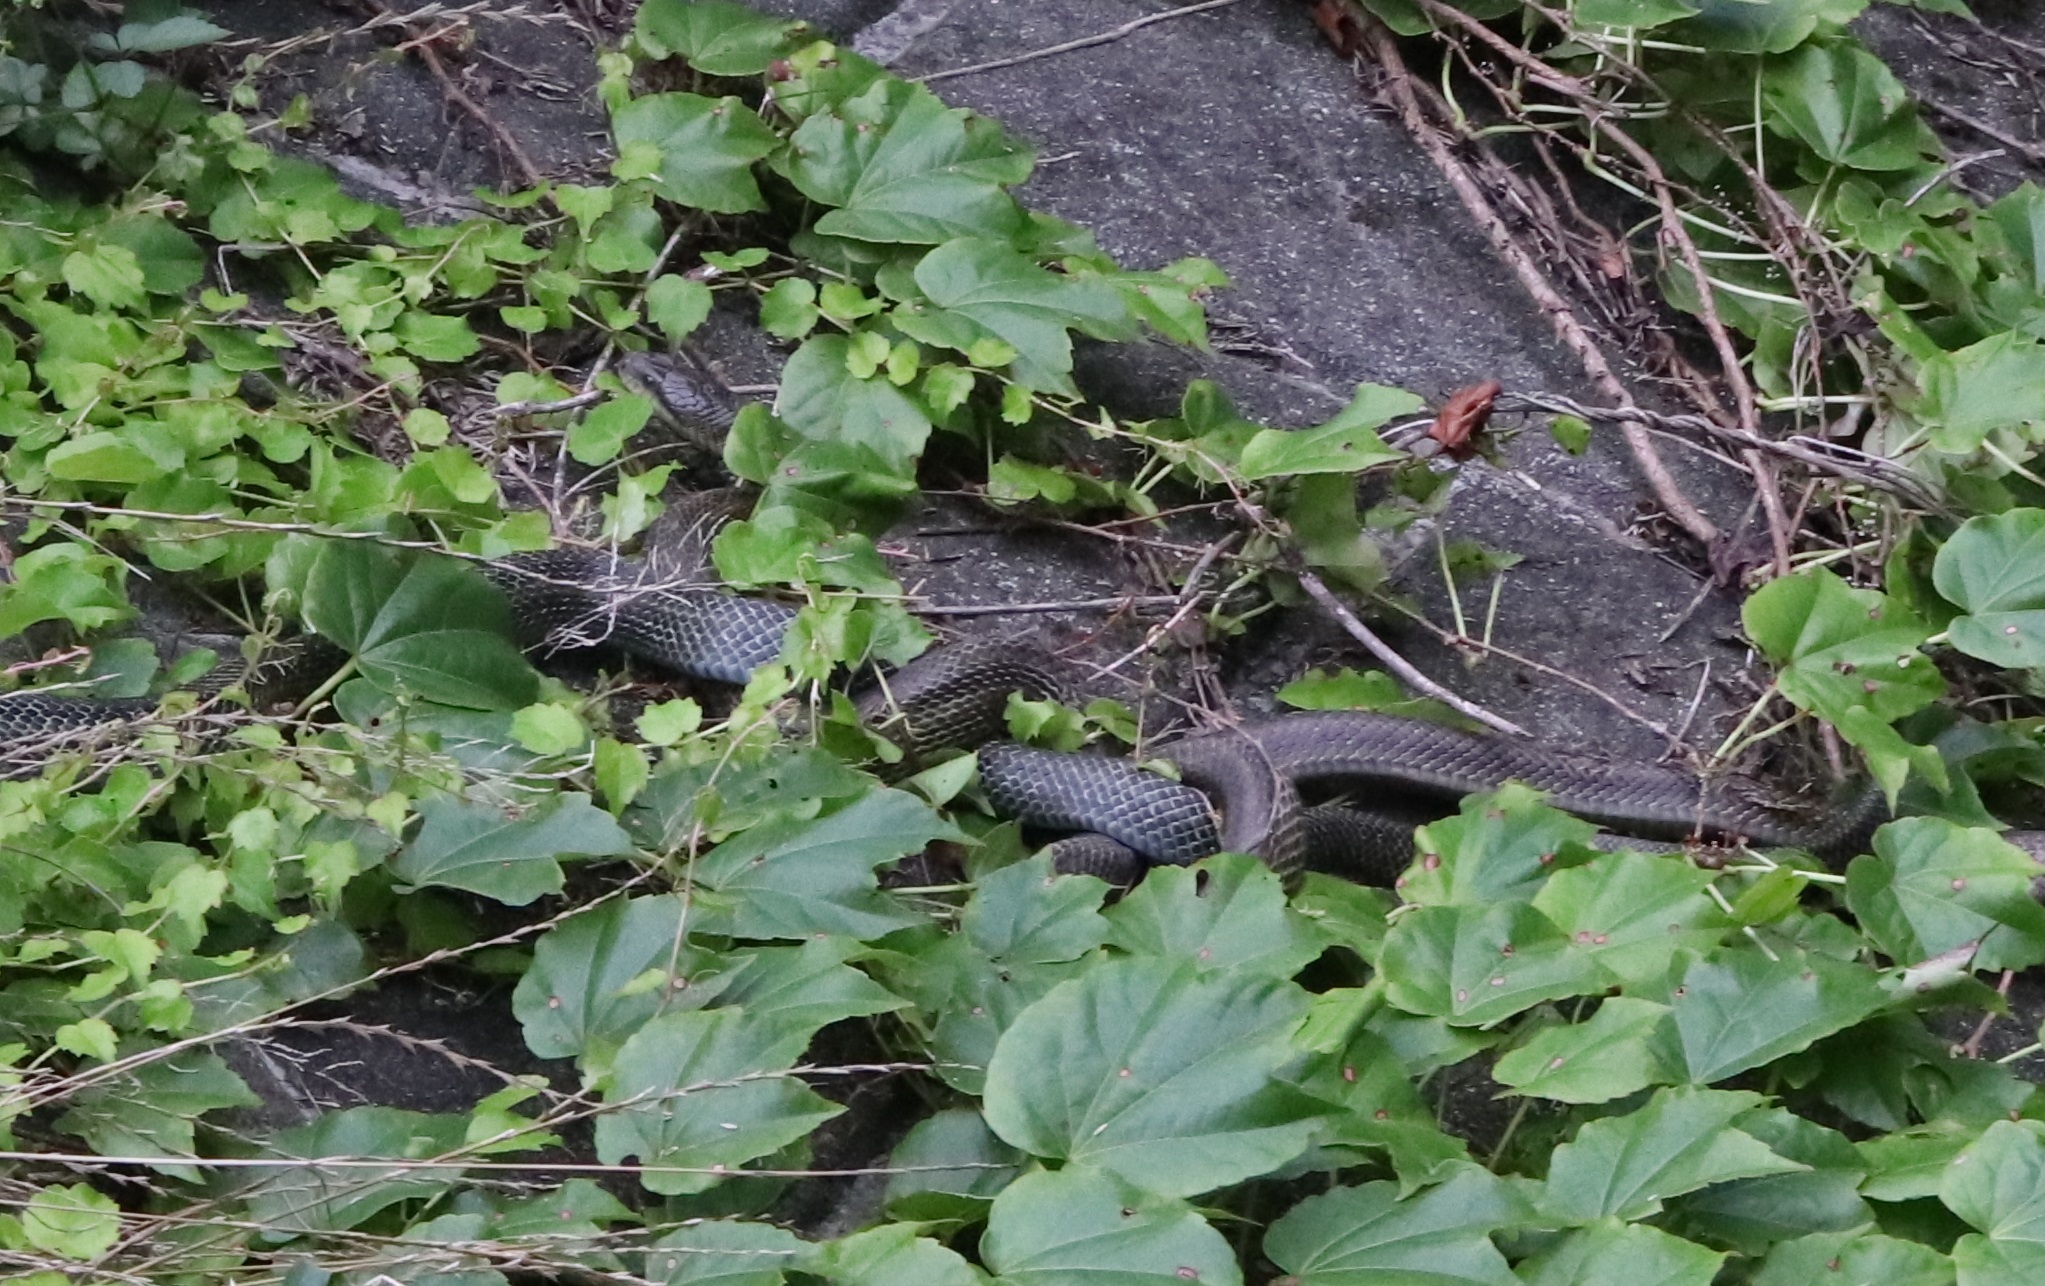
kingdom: Animalia
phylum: Chordata
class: Squamata
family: Colubridae
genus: Elaphe
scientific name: Elaphe climacophora
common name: Japanese ratsnake
